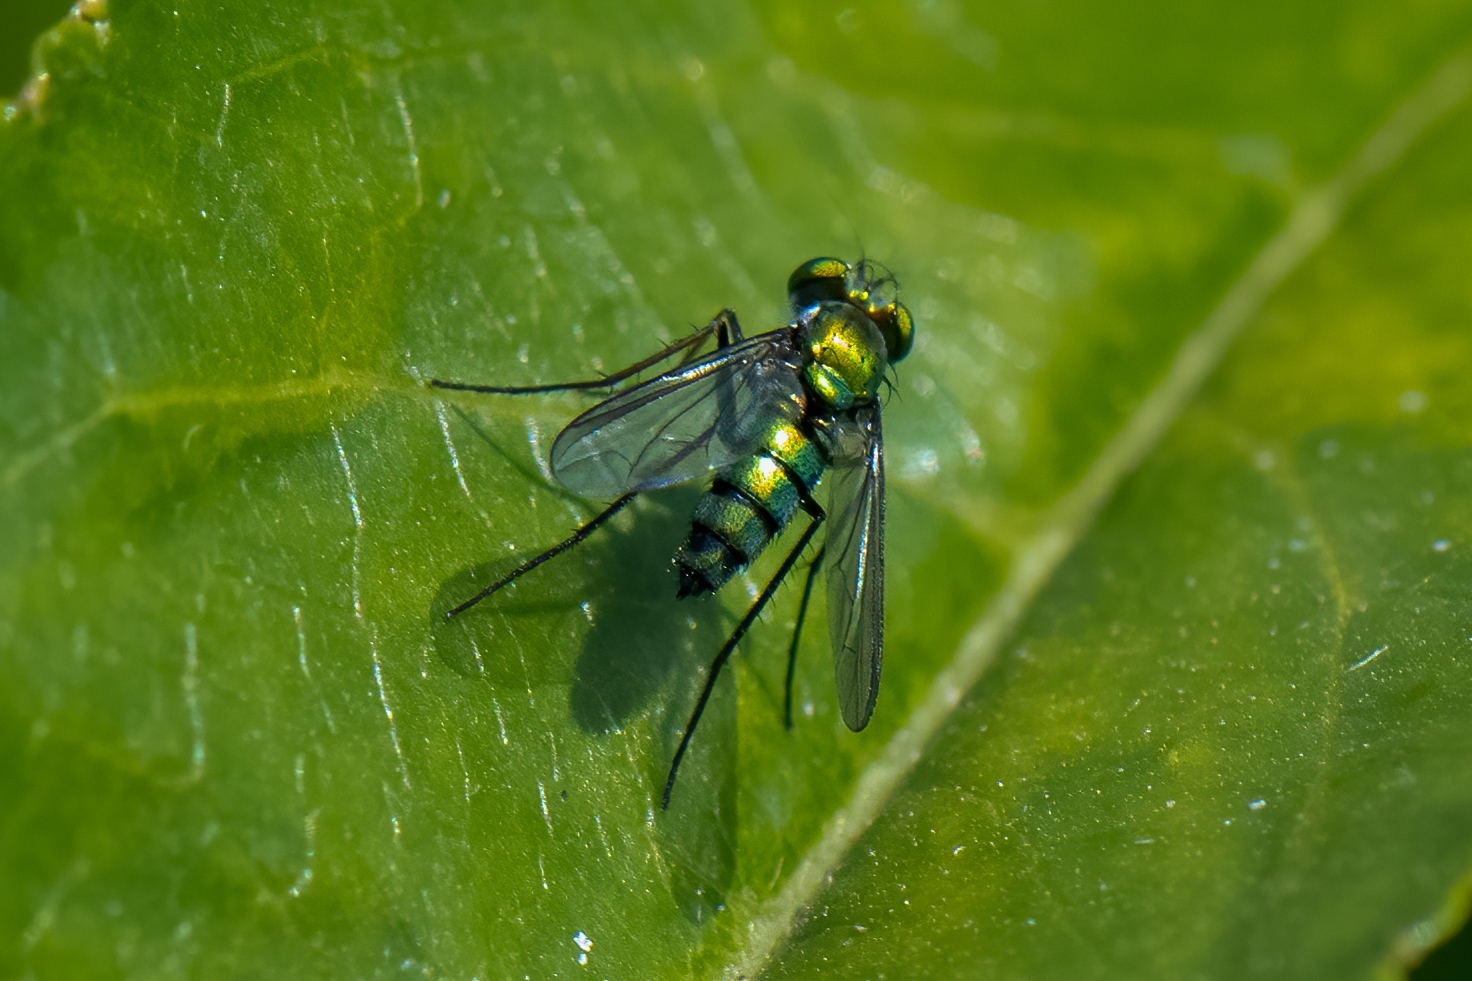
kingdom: Animalia
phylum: Arthropoda
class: Insecta
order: Diptera
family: Dolichopodidae
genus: Condylostylus
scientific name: Condylostylus longicornis
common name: Long-legged fly
